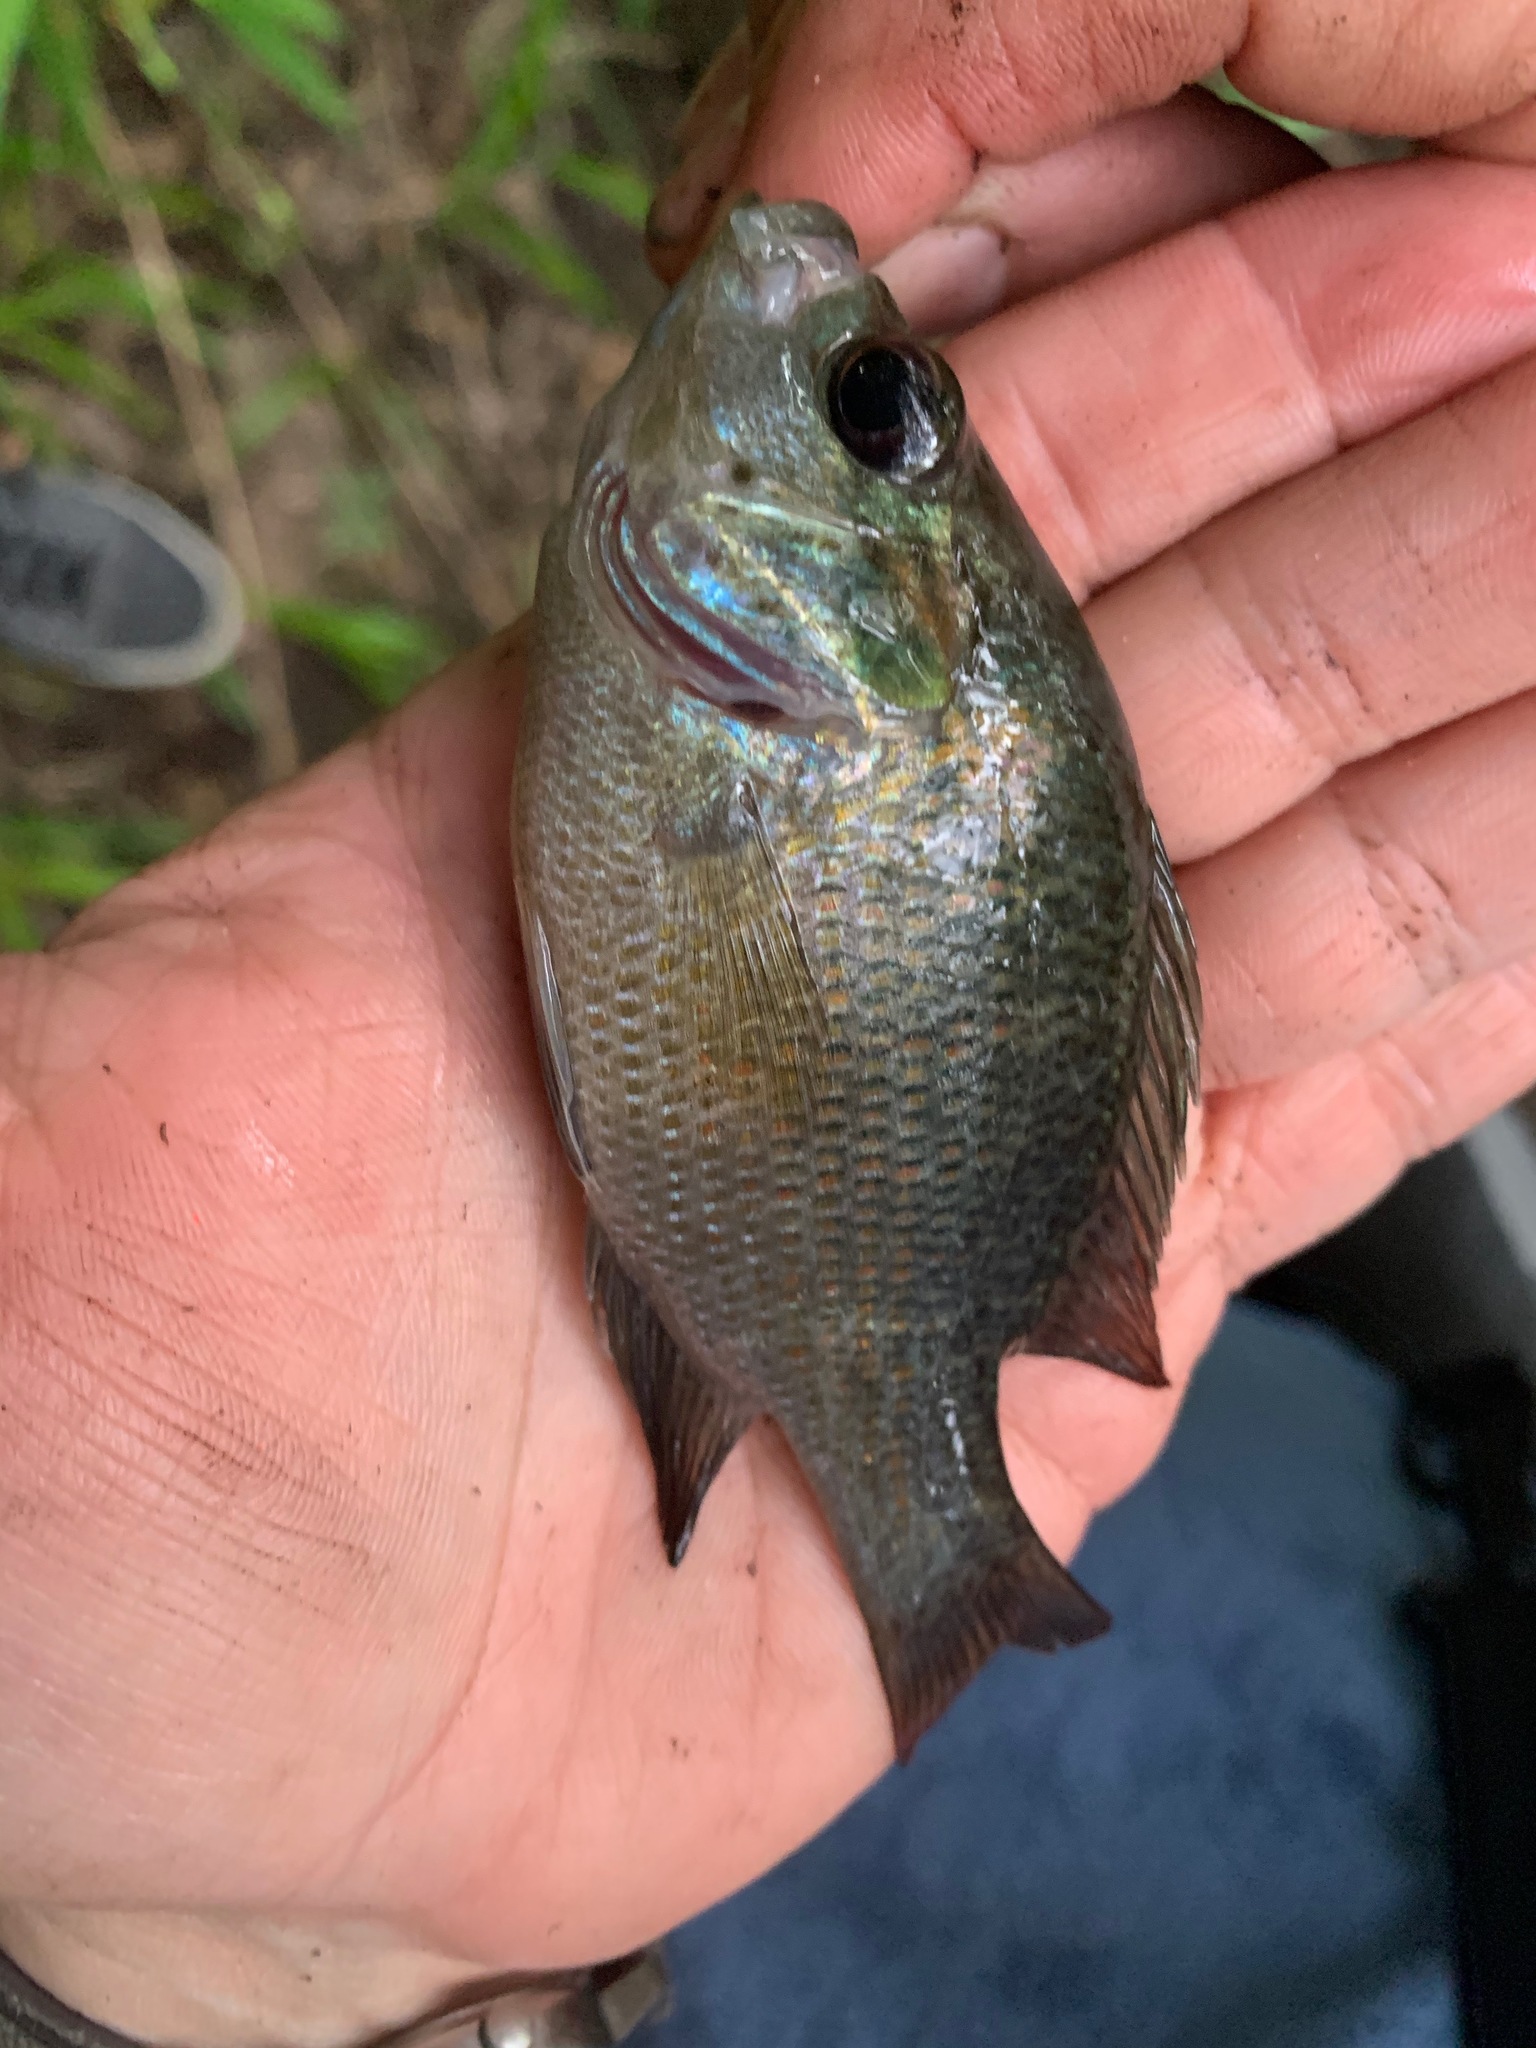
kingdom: Animalia
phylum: Chordata
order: Perciformes
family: Centrarchidae
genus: Lepomis
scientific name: Lepomis miniatus
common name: Redspotted sunfish
